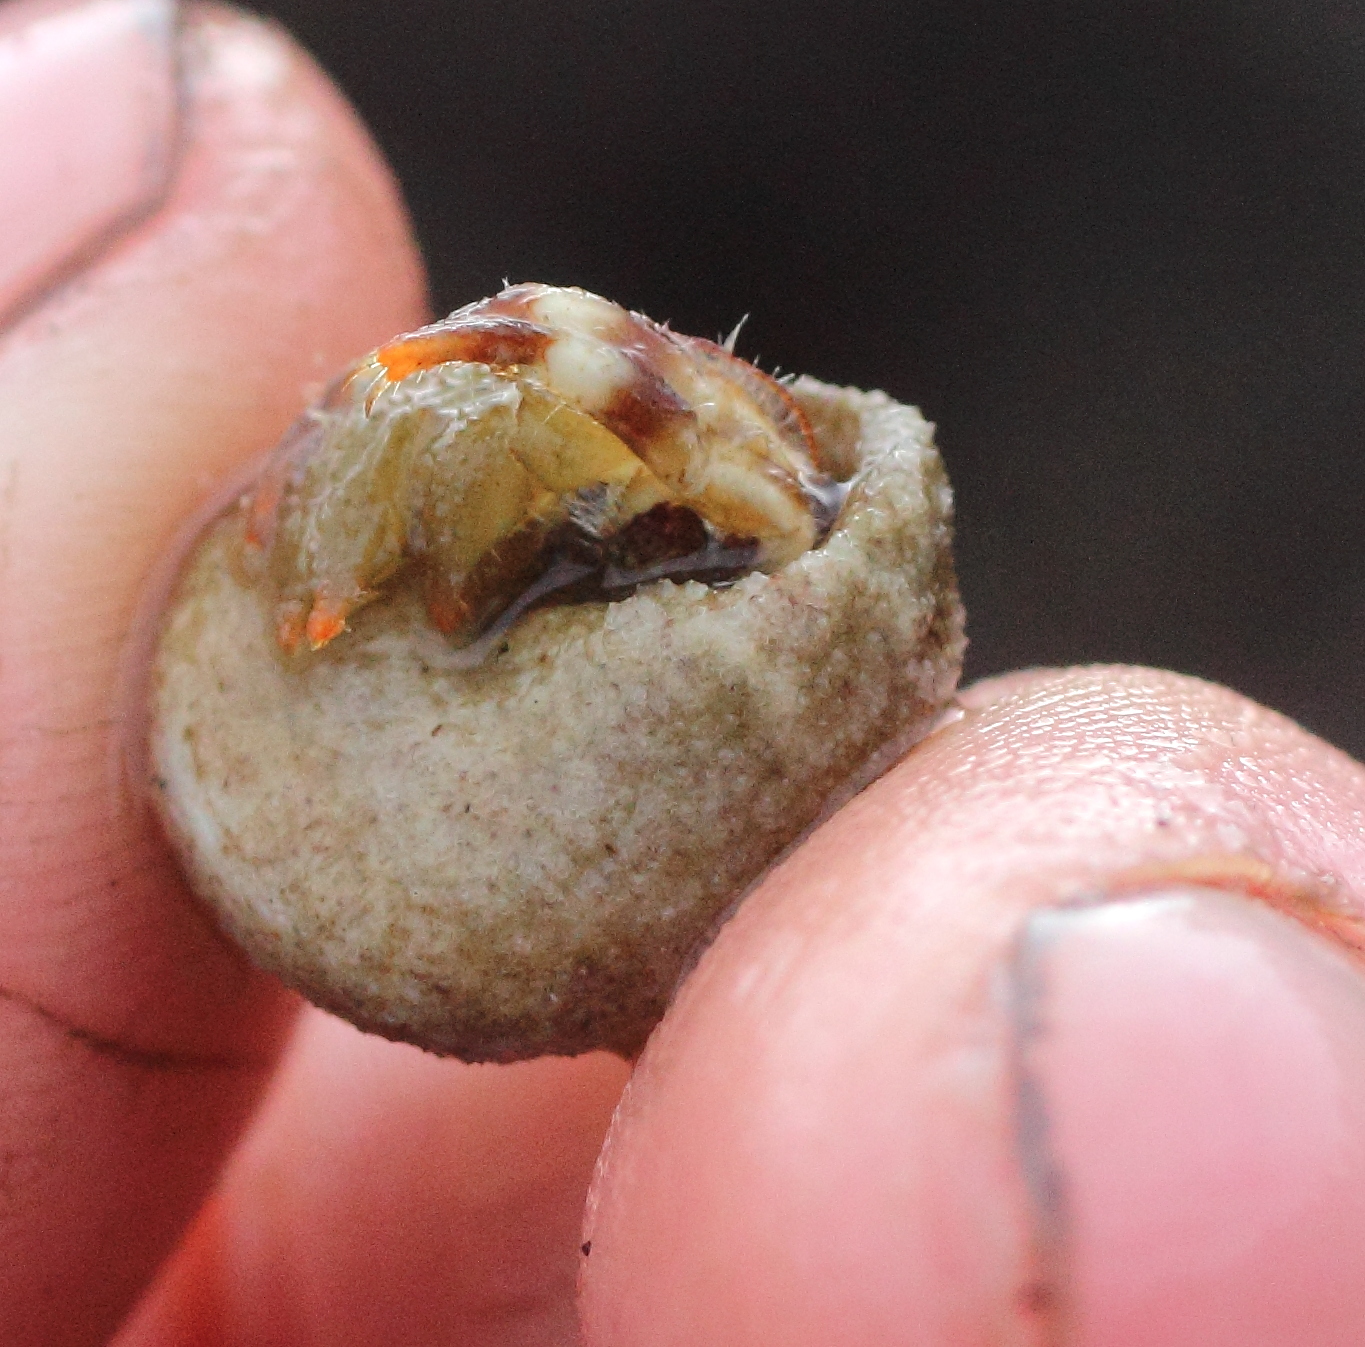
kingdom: Animalia
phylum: Arthropoda
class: Malacostraca
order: Decapoda
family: Paguridae
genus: Pagurus
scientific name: Pagurus caurinus
